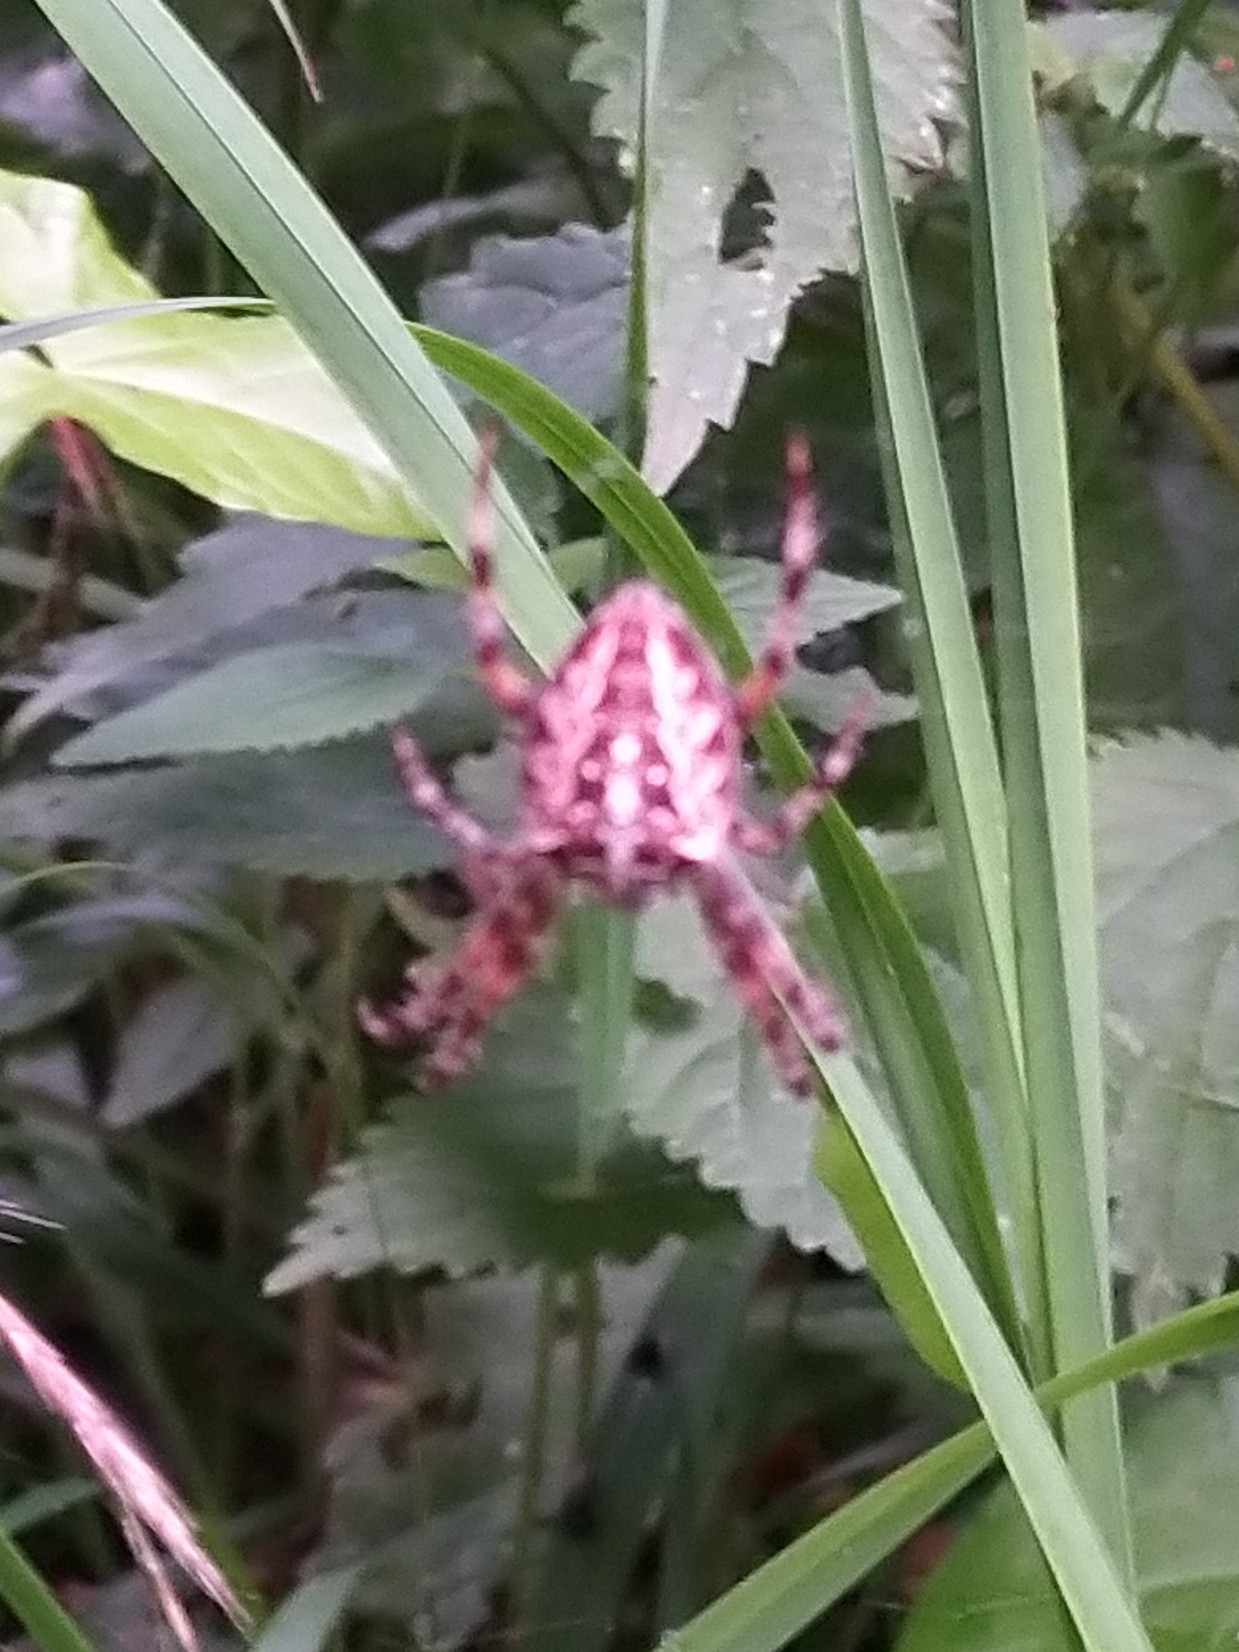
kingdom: Animalia
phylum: Arthropoda
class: Arachnida
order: Araneae
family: Araneidae
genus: Araneus
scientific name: Araneus diadematus
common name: Cross orbweaver
